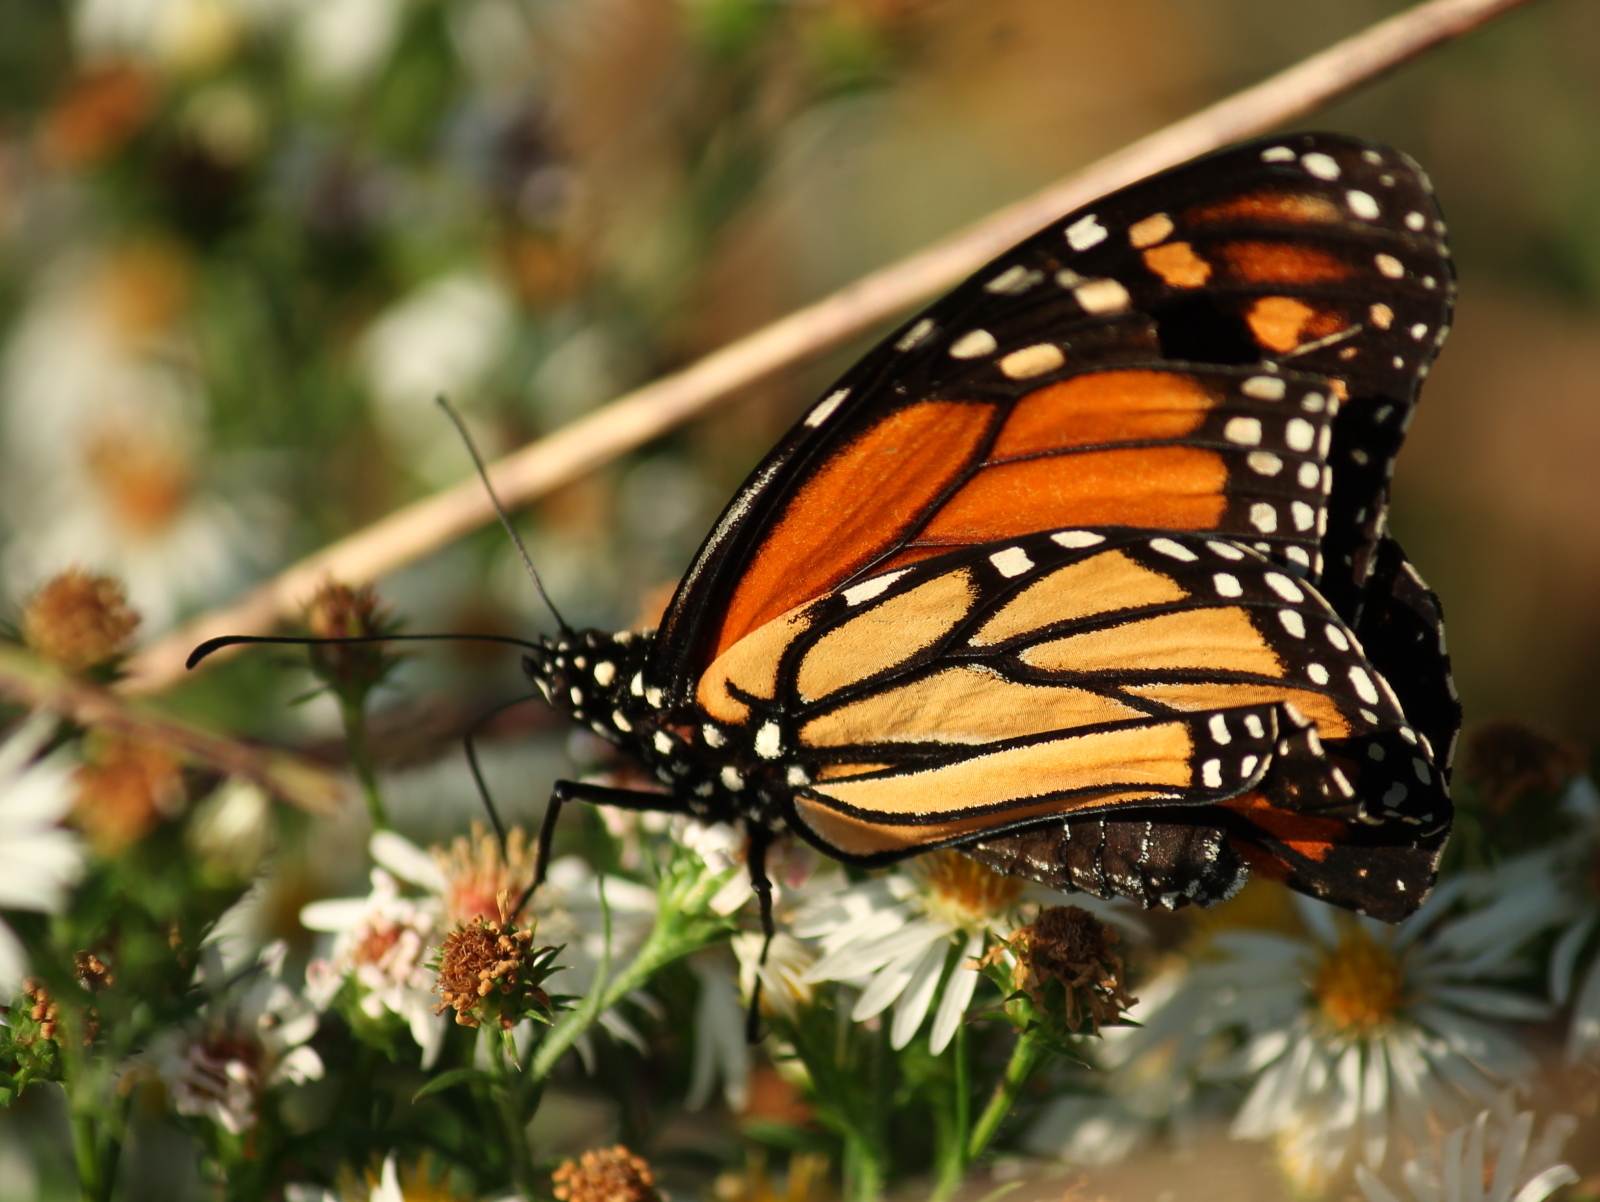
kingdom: Animalia
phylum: Arthropoda
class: Insecta
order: Lepidoptera
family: Nymphalidae
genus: Danaus
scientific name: Danaus plexippus
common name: Monarch
